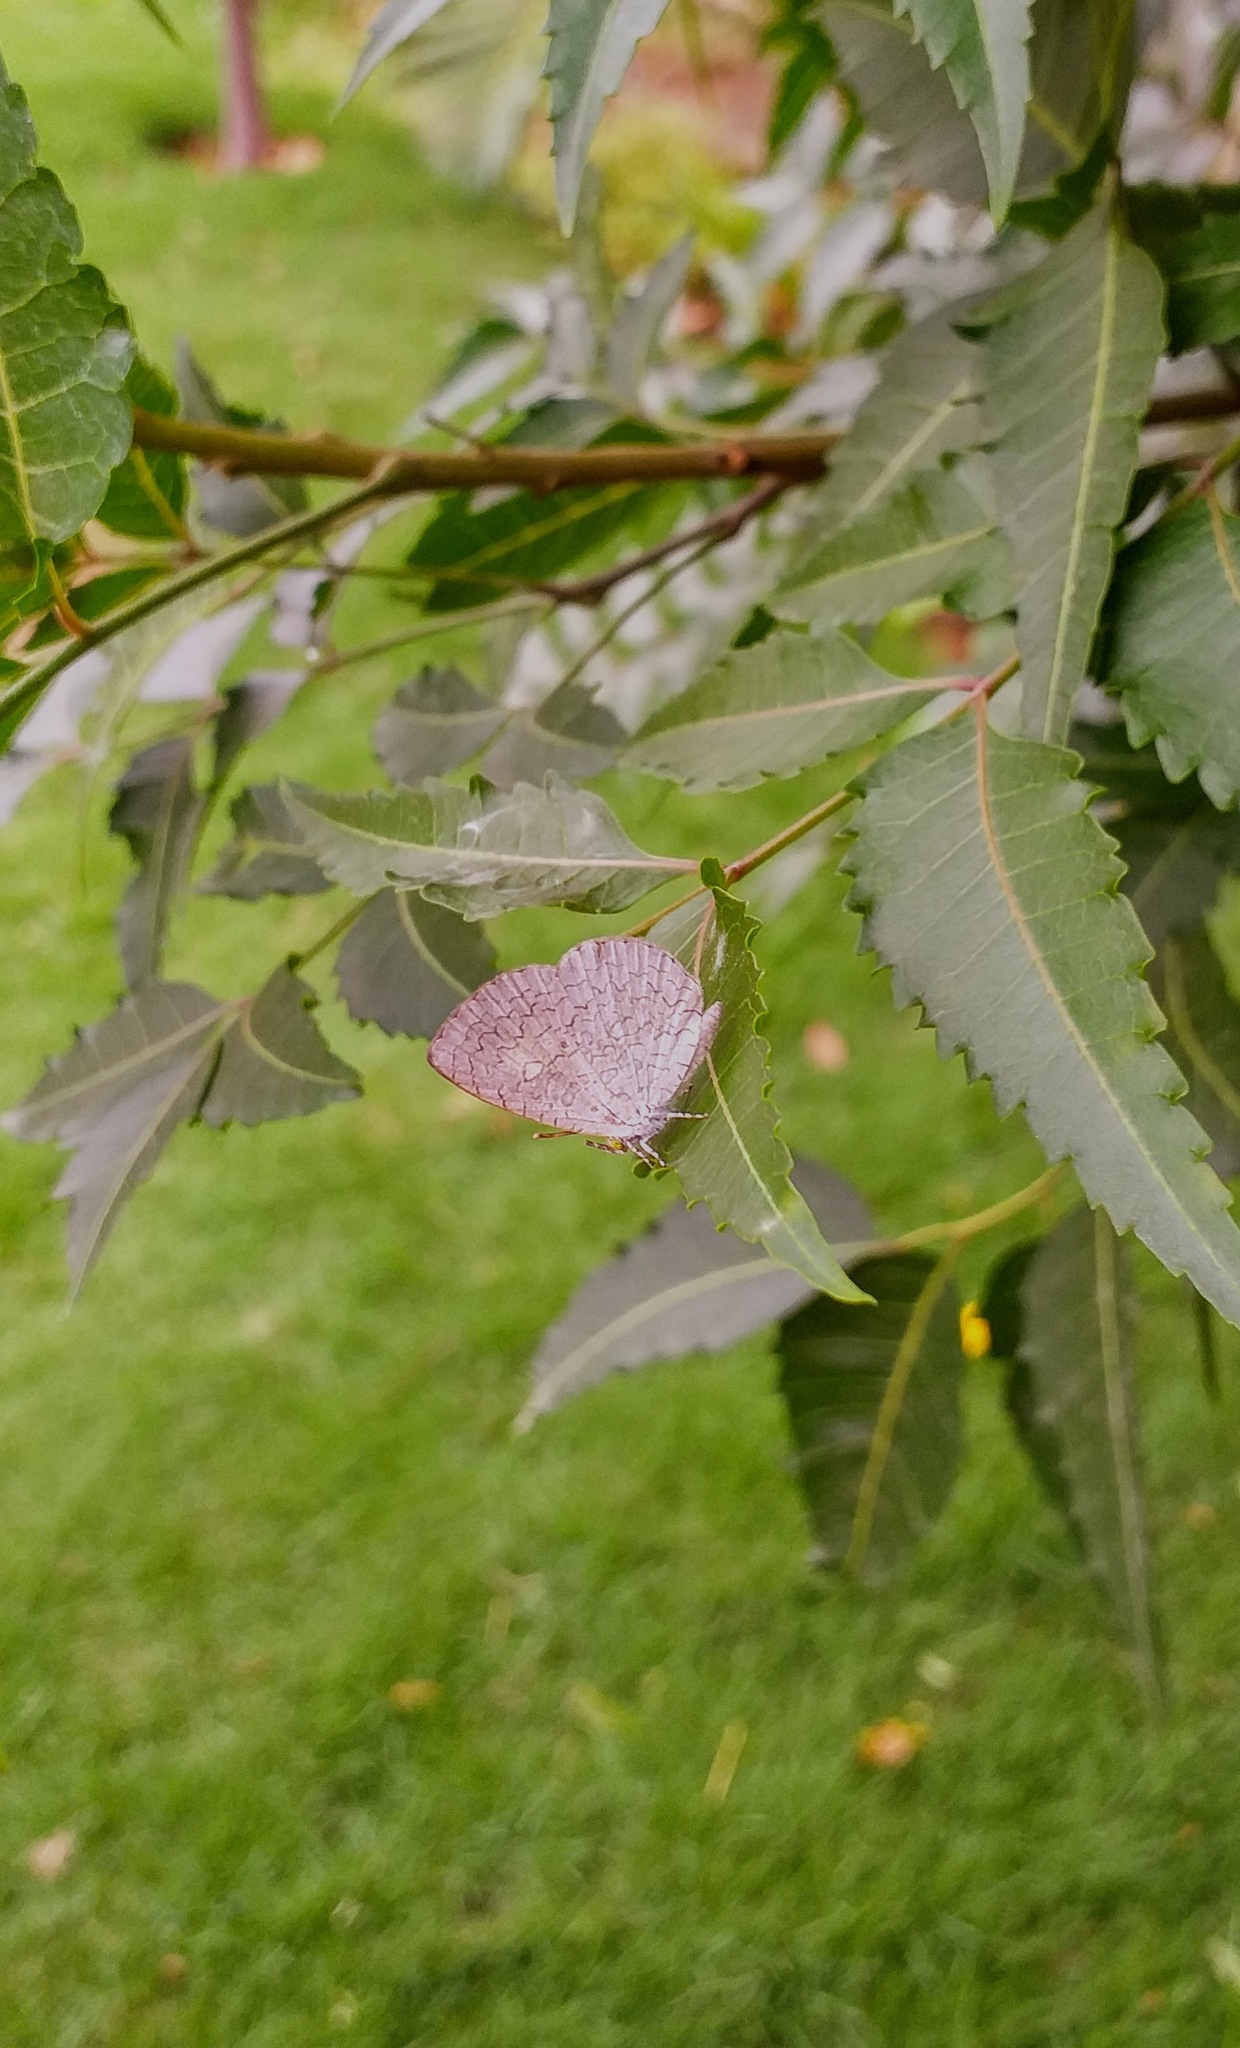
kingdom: Animalia
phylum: Arthropoda
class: Insecta
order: Lepidoptera
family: Lycaenidae
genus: Spalgis
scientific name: Spalgis epius
